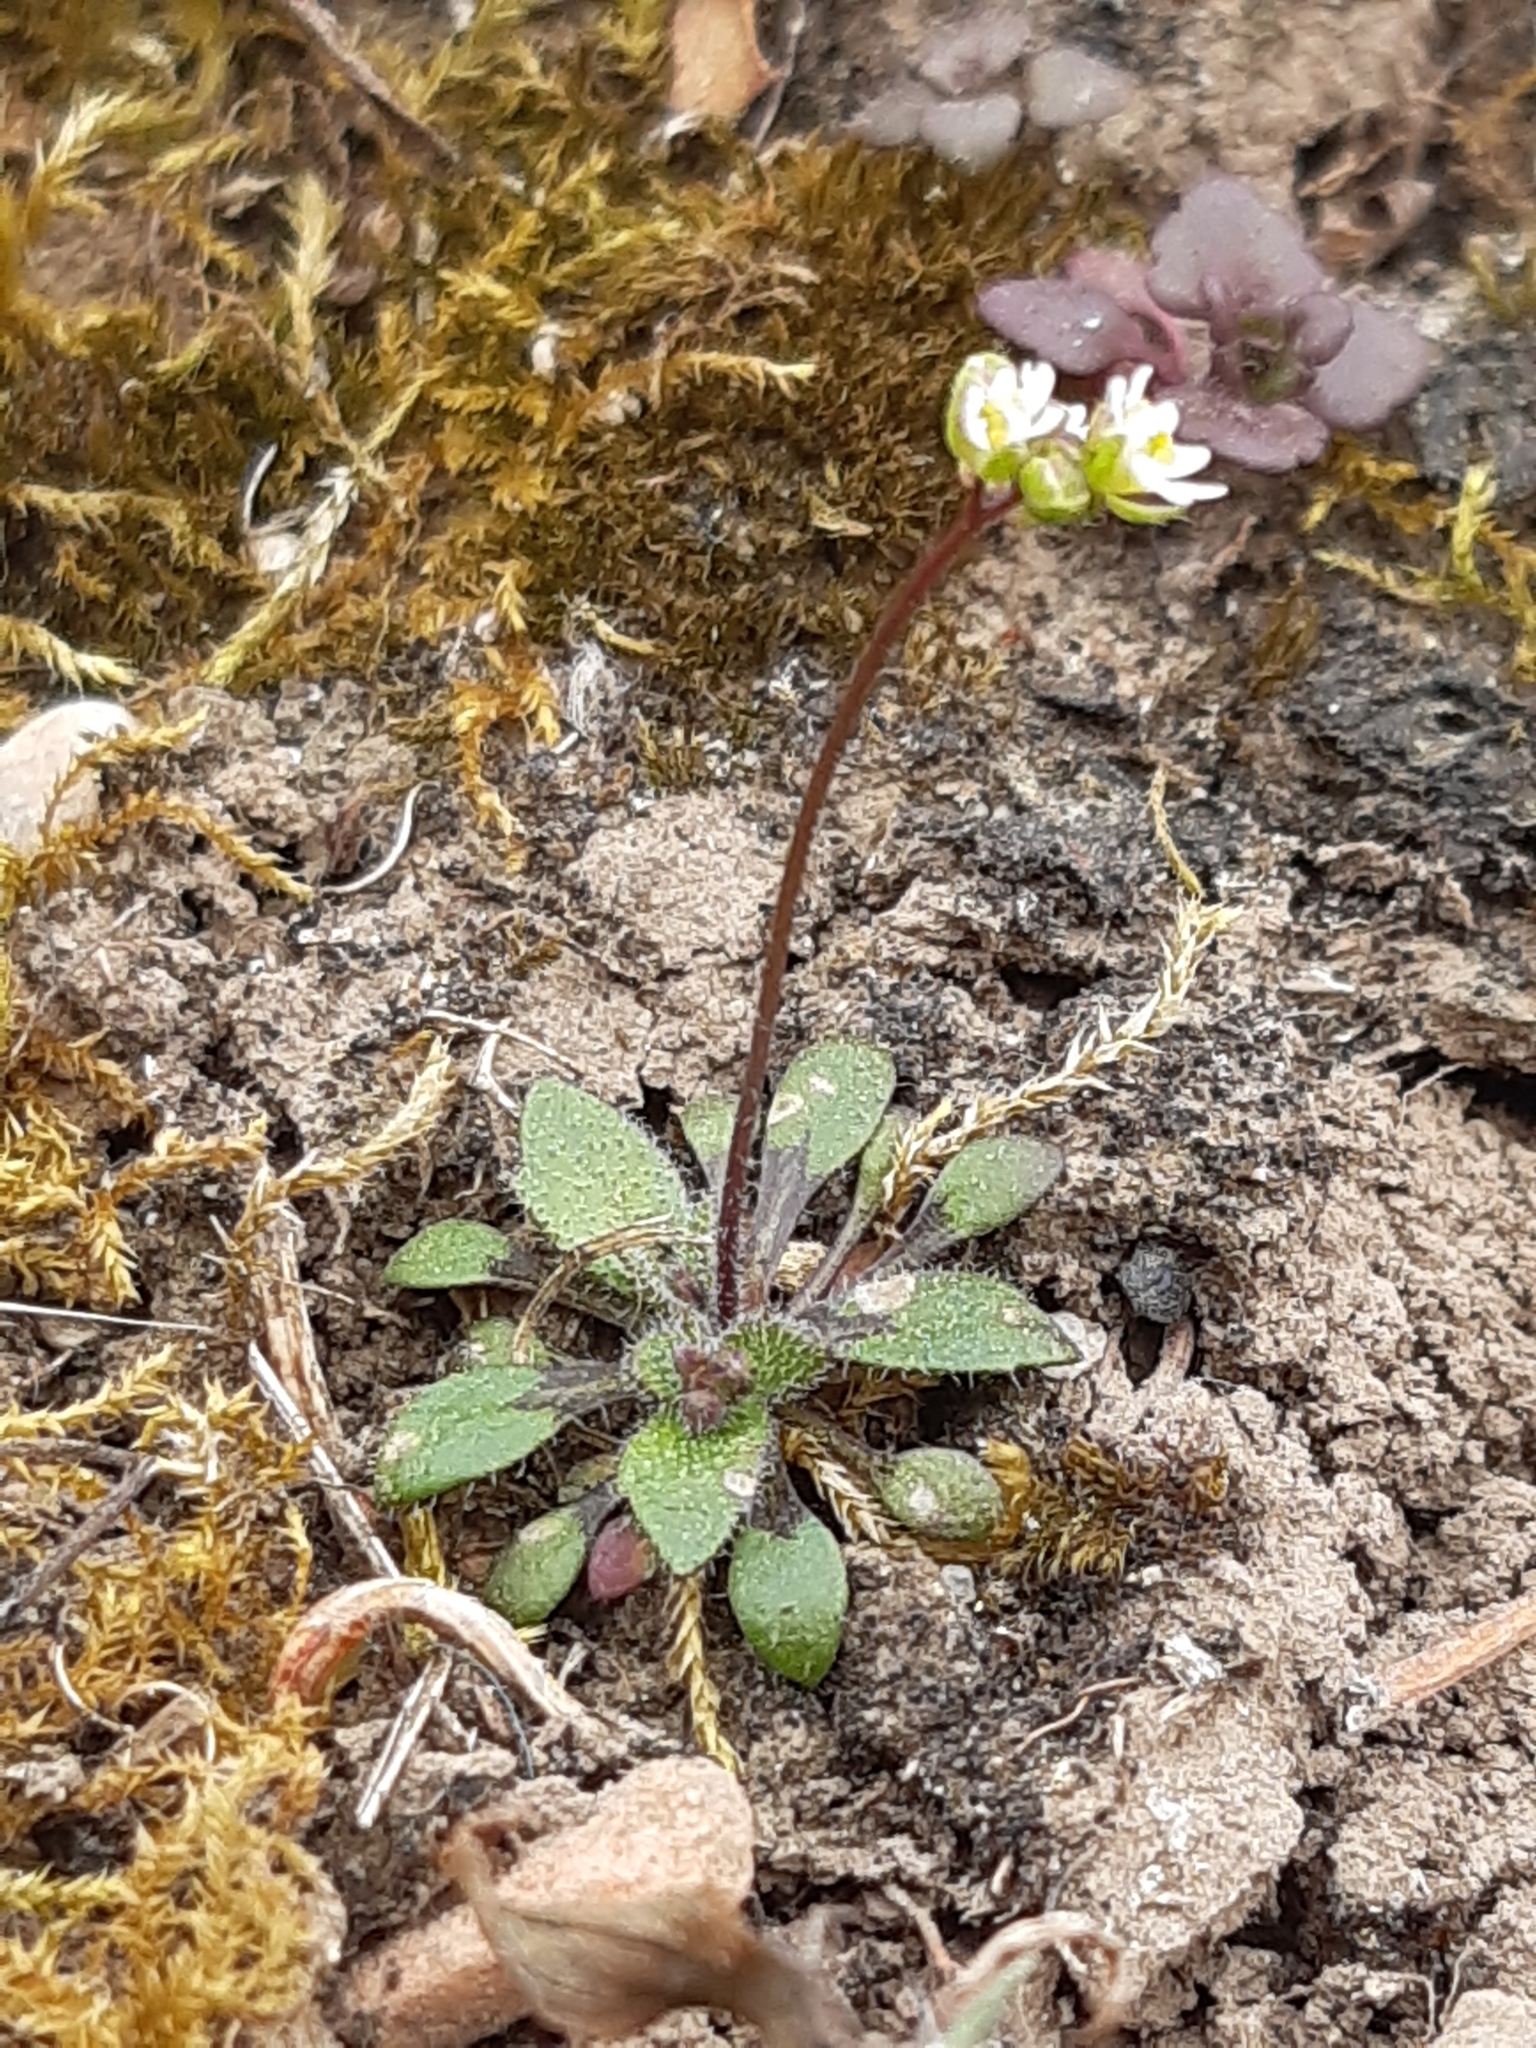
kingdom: Plantae
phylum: Tracheophyta
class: Magnoliopsida
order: Brassicales
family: Brassicaceae
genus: Draba
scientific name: Draba verna
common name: Spring draba
